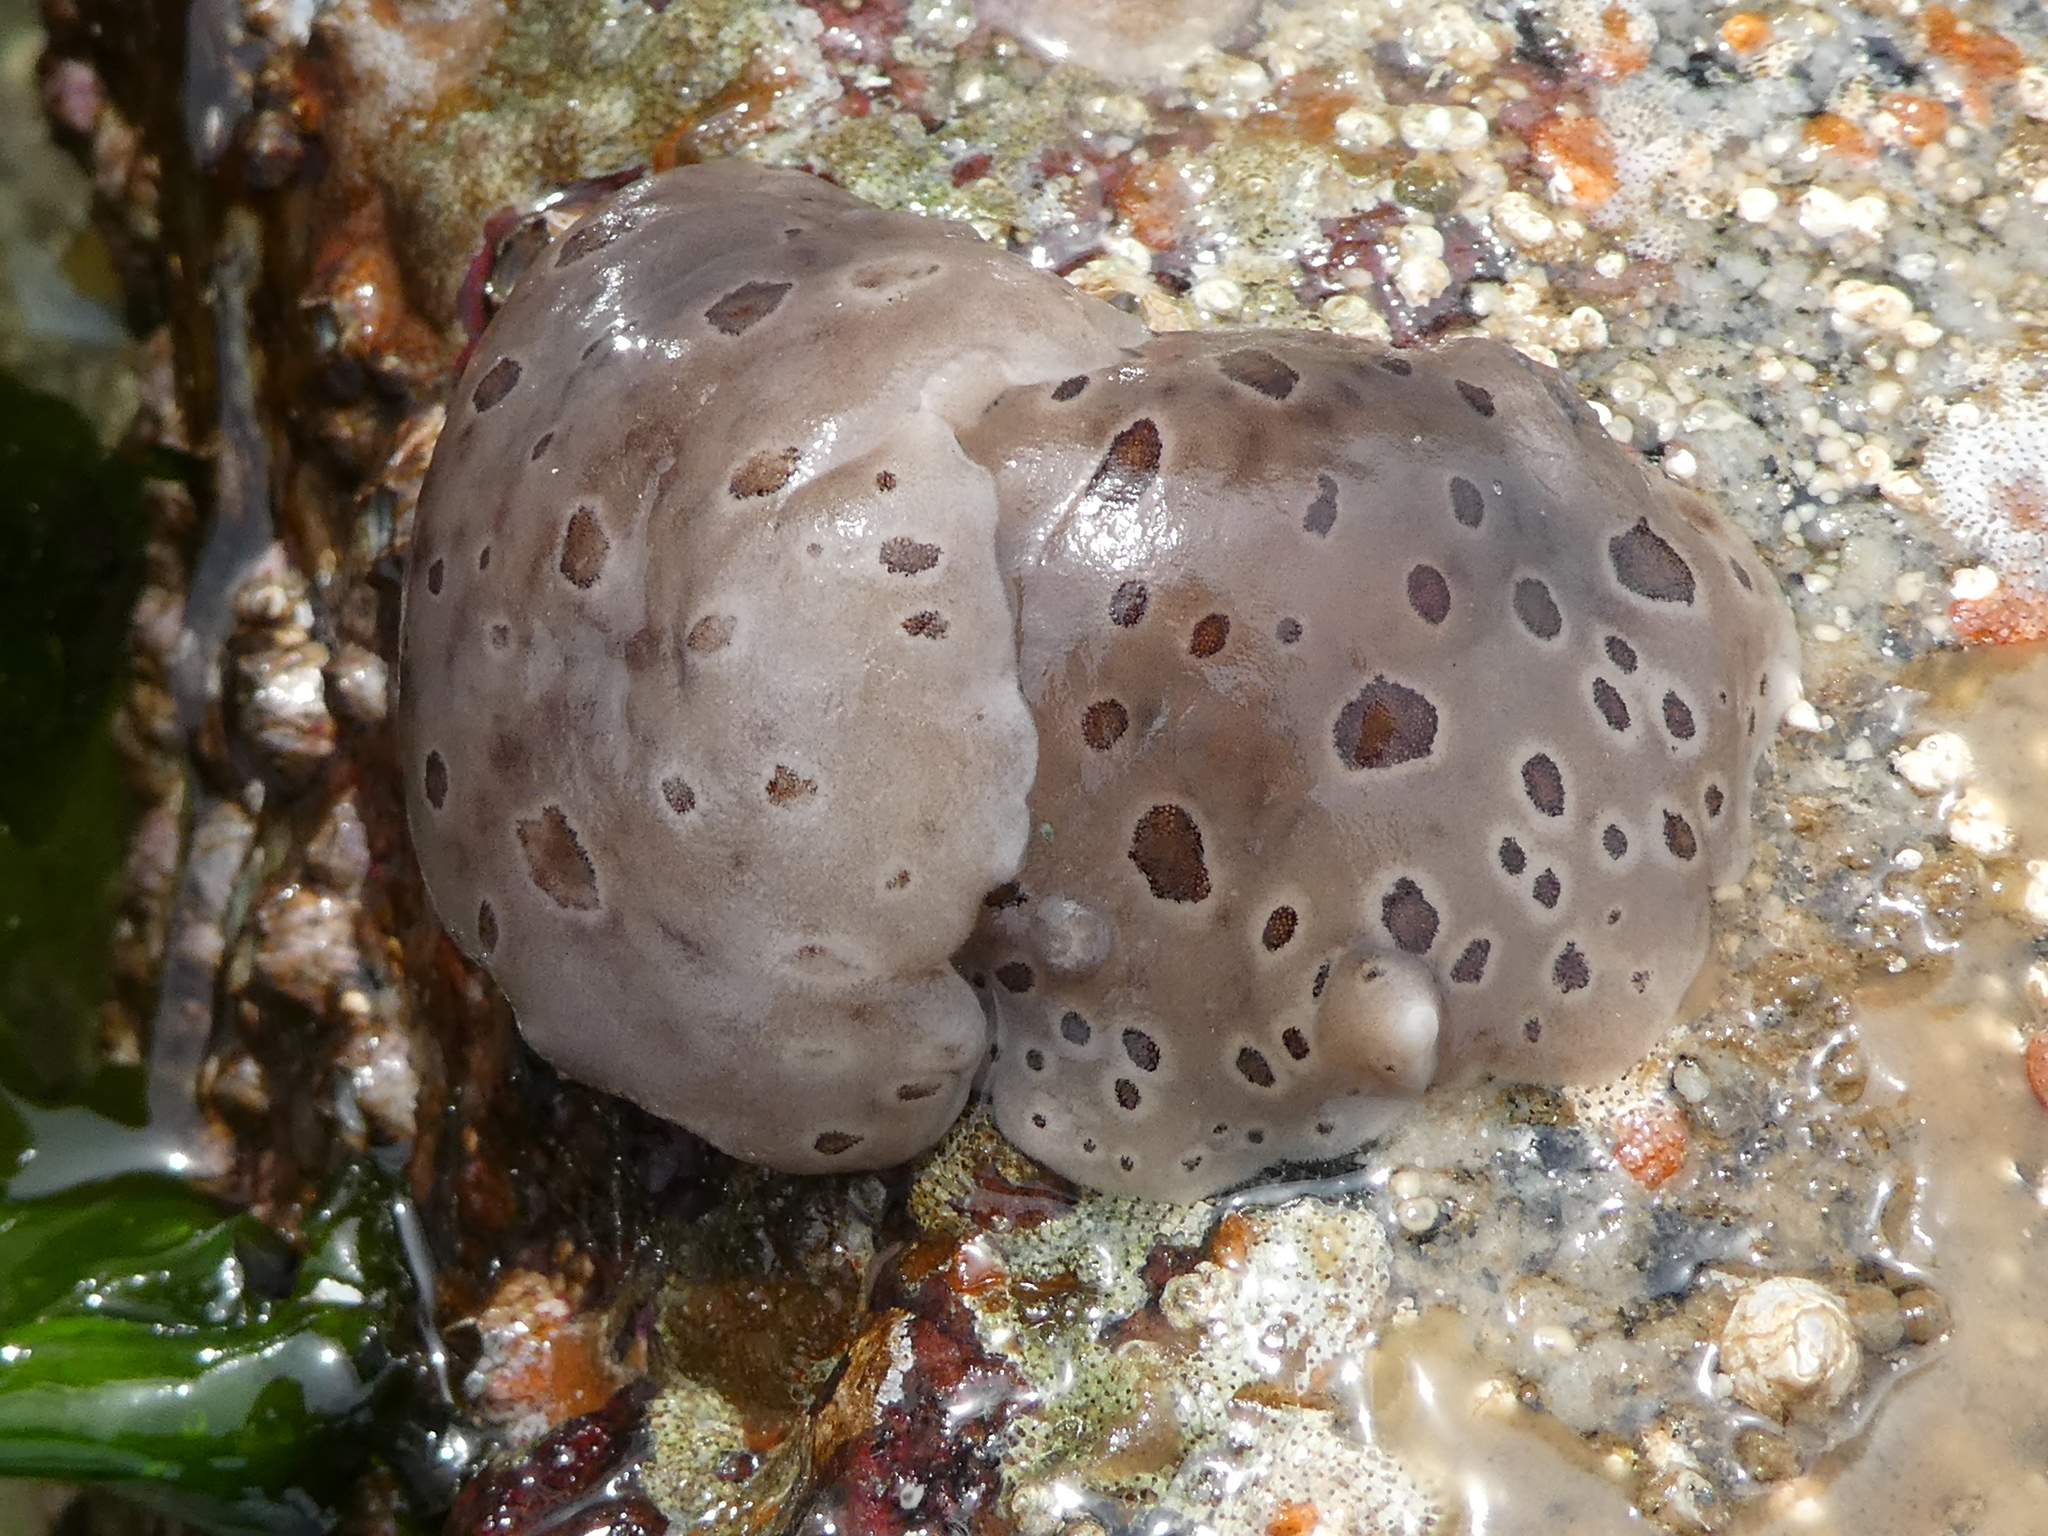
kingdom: Animalia
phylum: Mollusca
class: Gastropoda
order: Nudibranchia
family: Discodorididae
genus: Diaulula
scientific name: Diaulula odonoghuei
